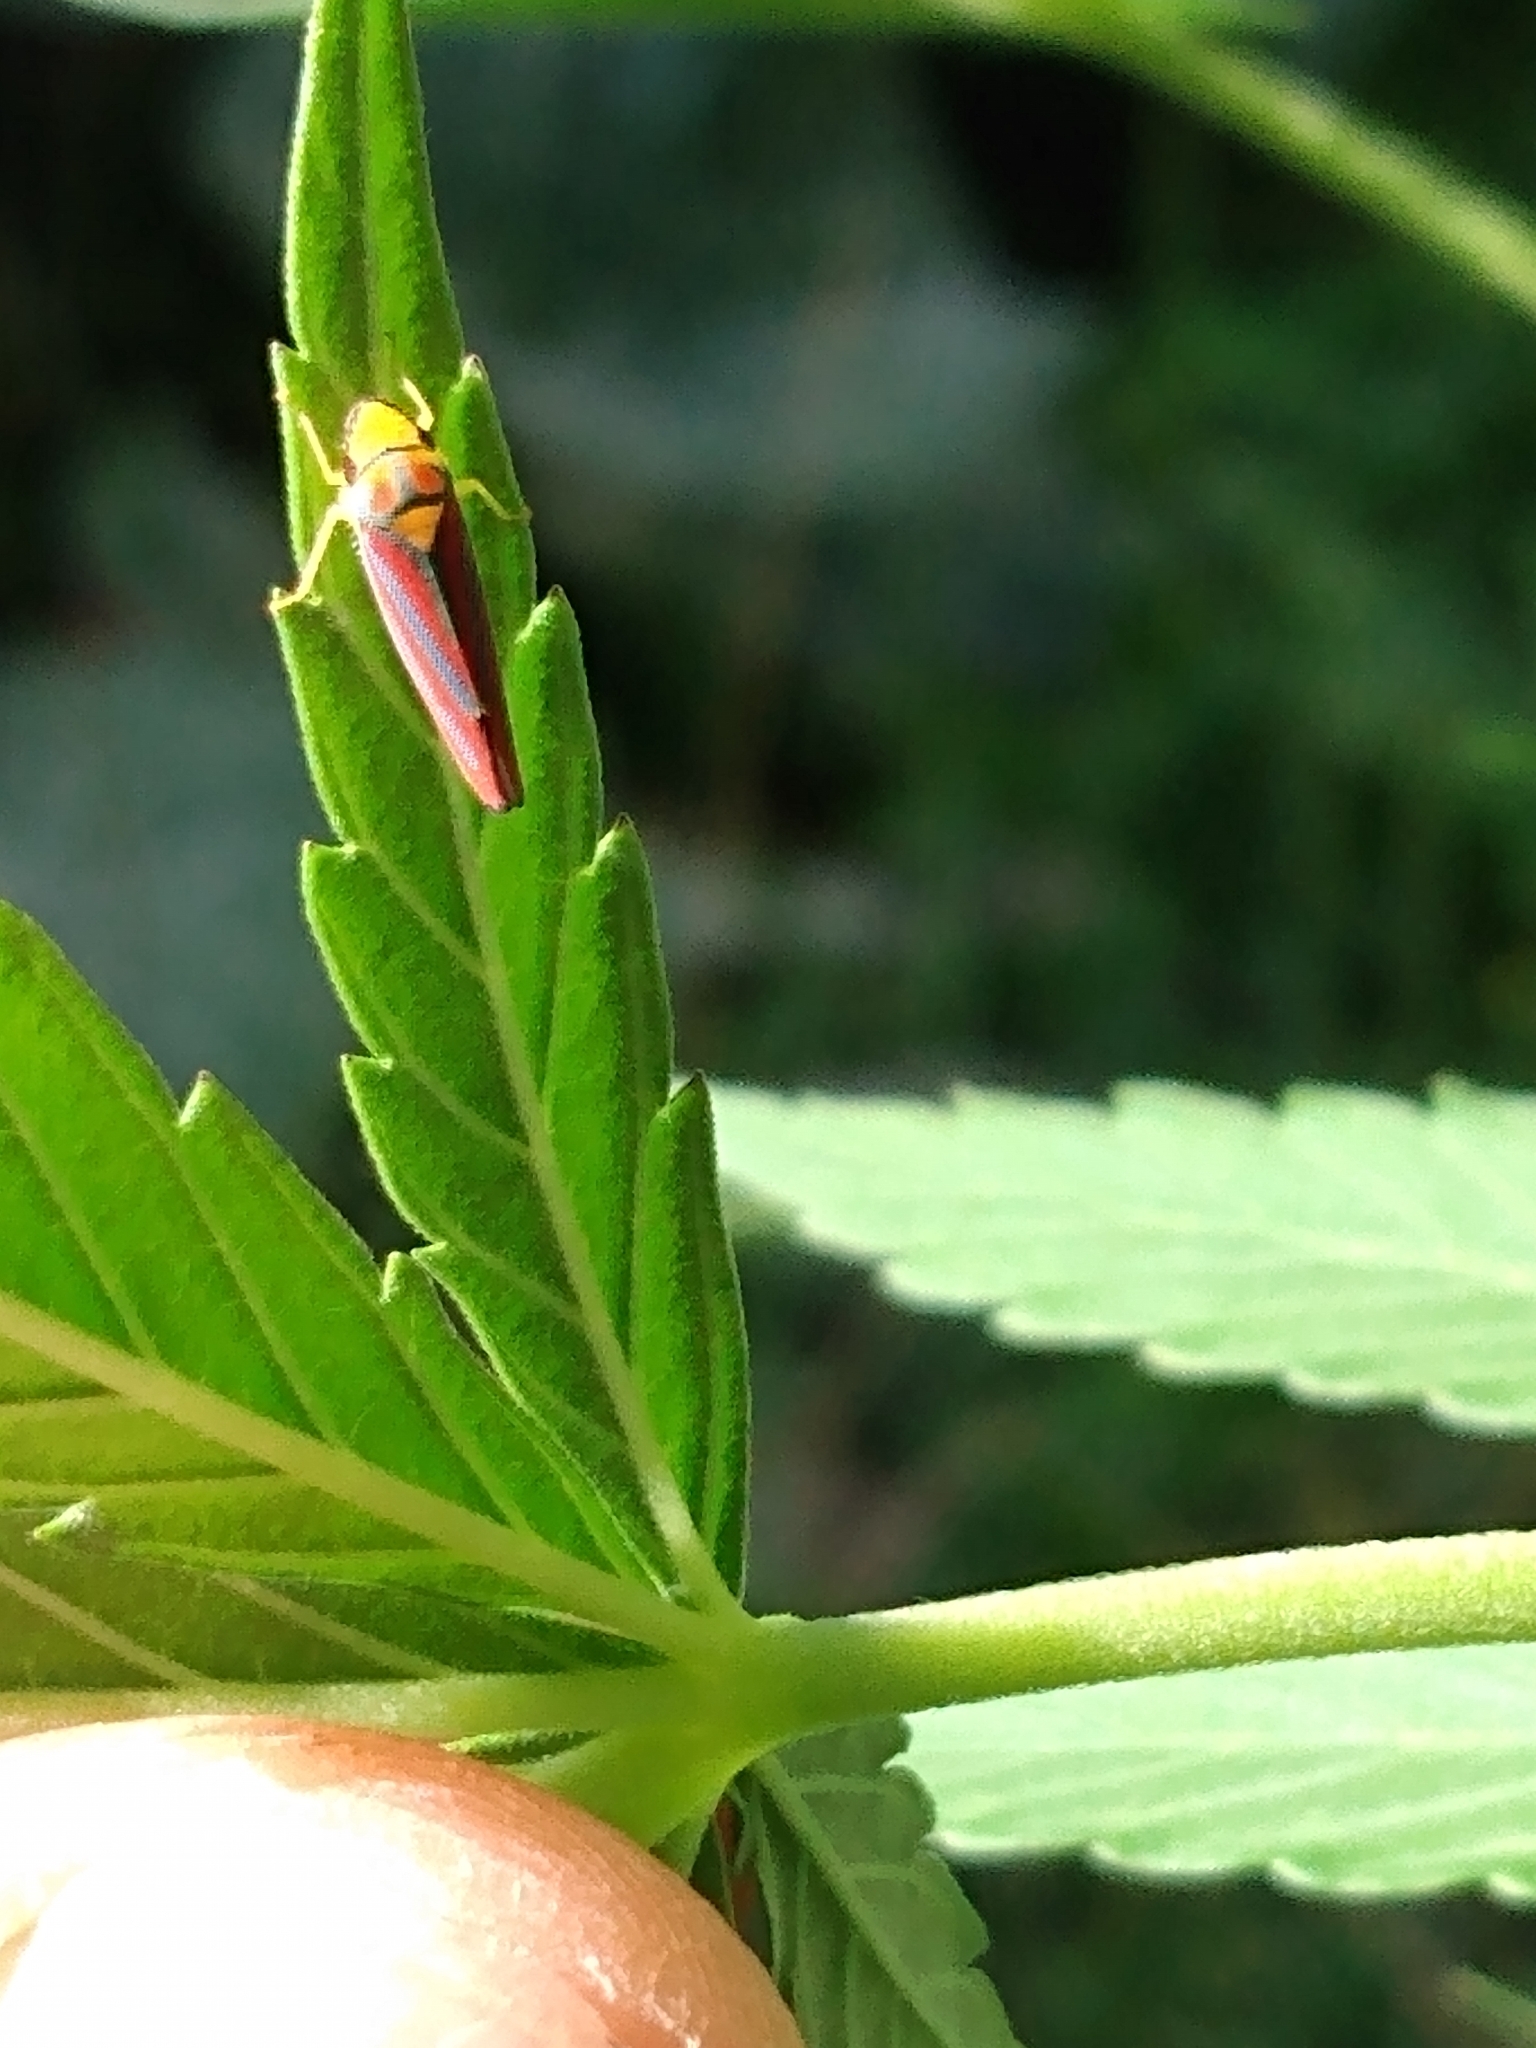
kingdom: Animalia
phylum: Arthropoda
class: Insecta
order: Hemiptera
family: Cicadellidae
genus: Graphocephala
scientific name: Graphocephala coccinea
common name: Candy-striped leafhopper
